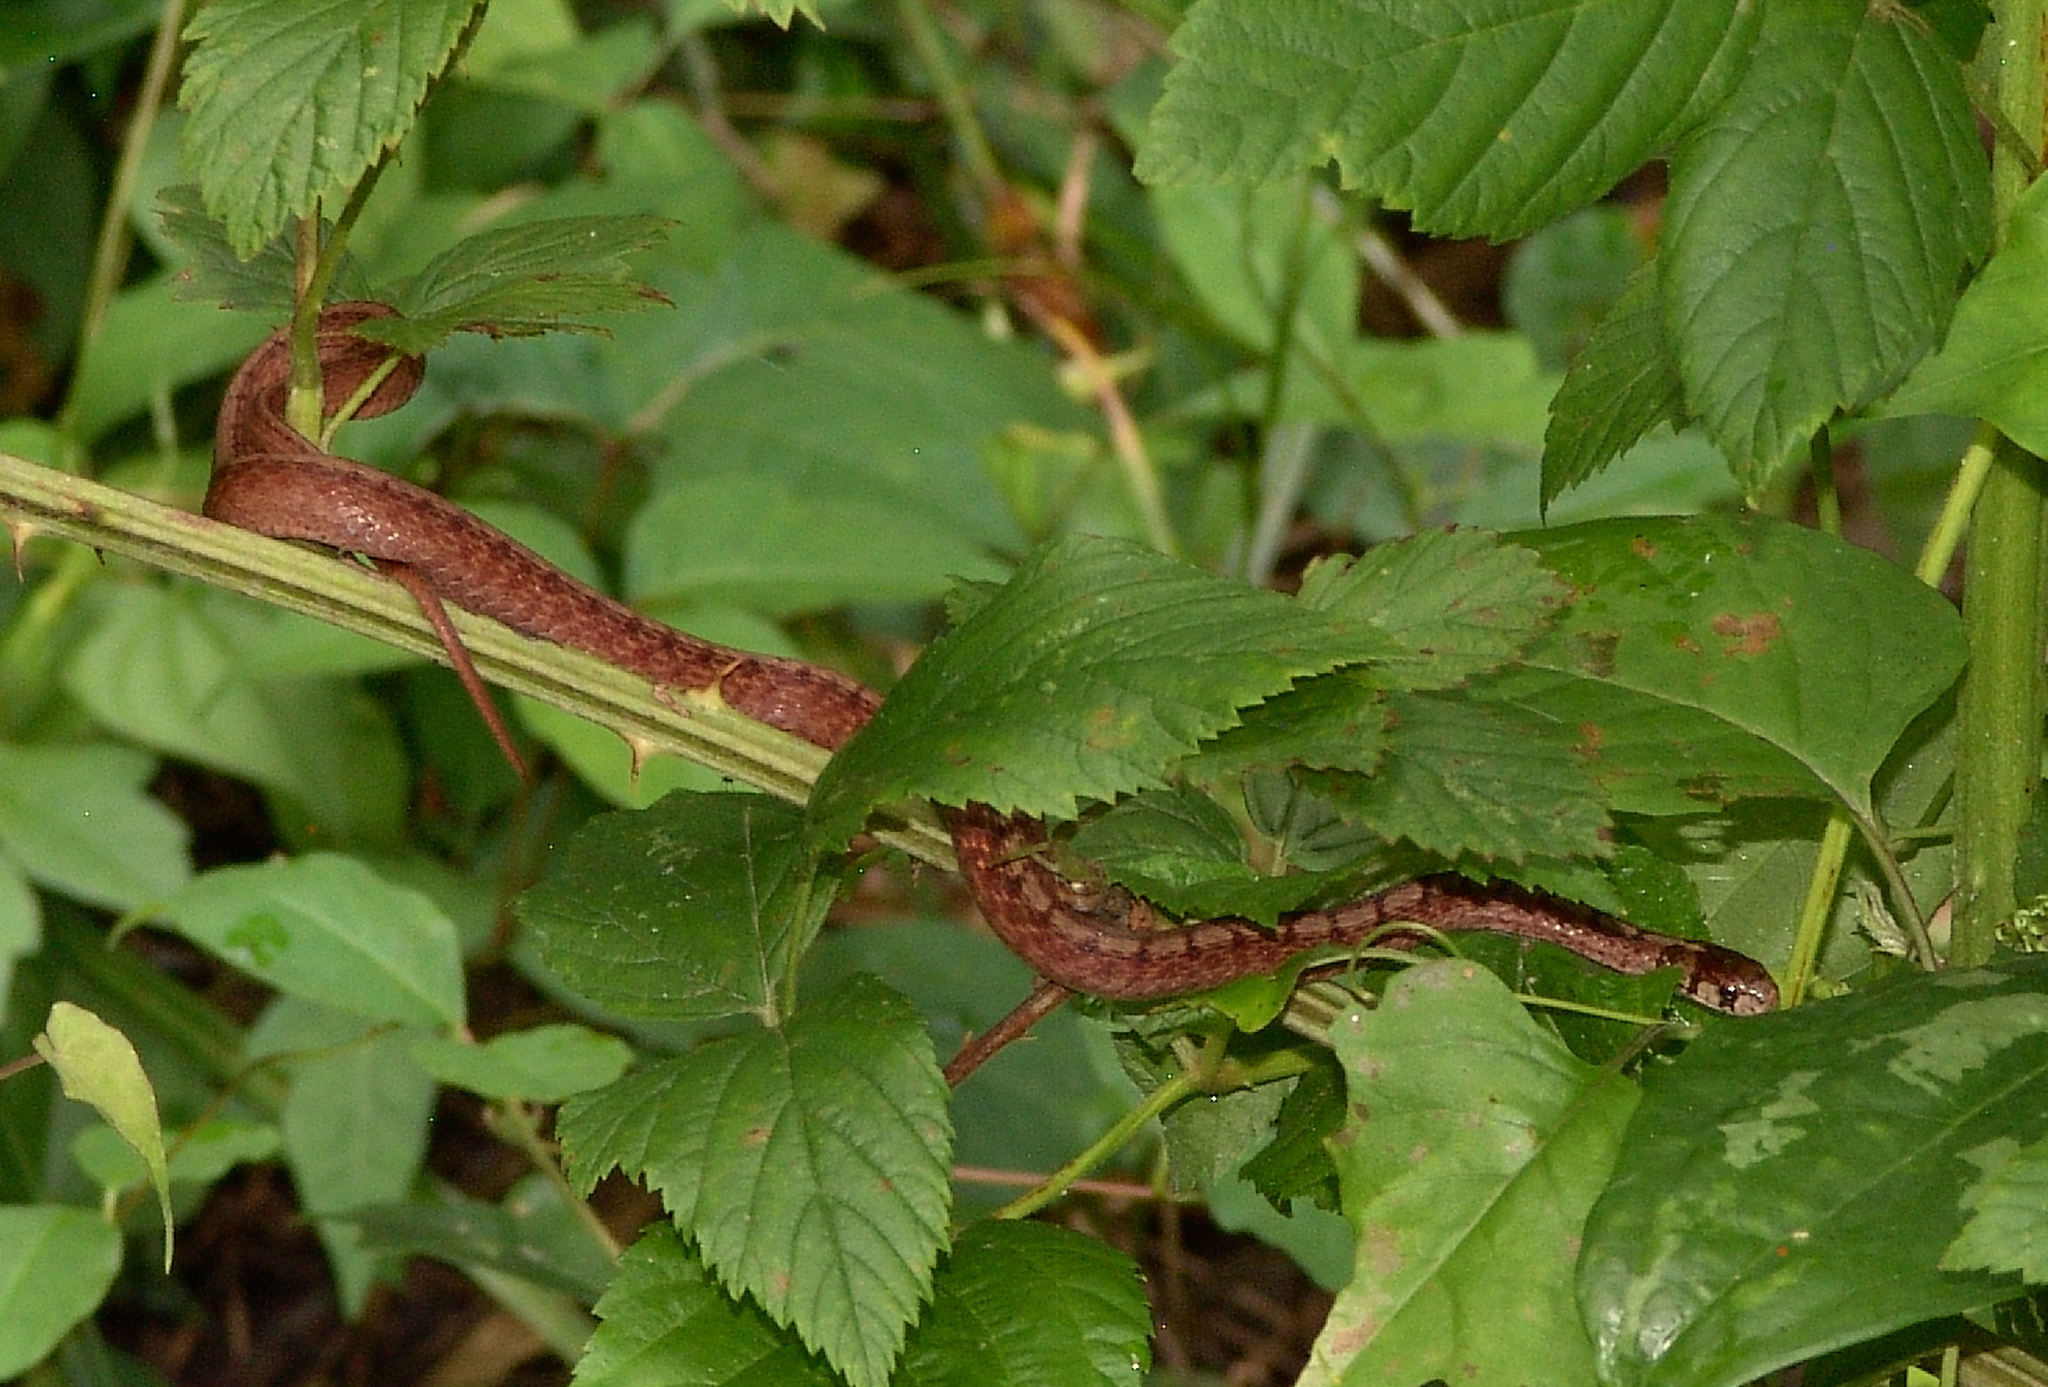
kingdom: Animalia
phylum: Chordata
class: Squamata
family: Colubridae
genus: Storeria
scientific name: Storeria dekayi
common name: (dekay’s) brown snake
